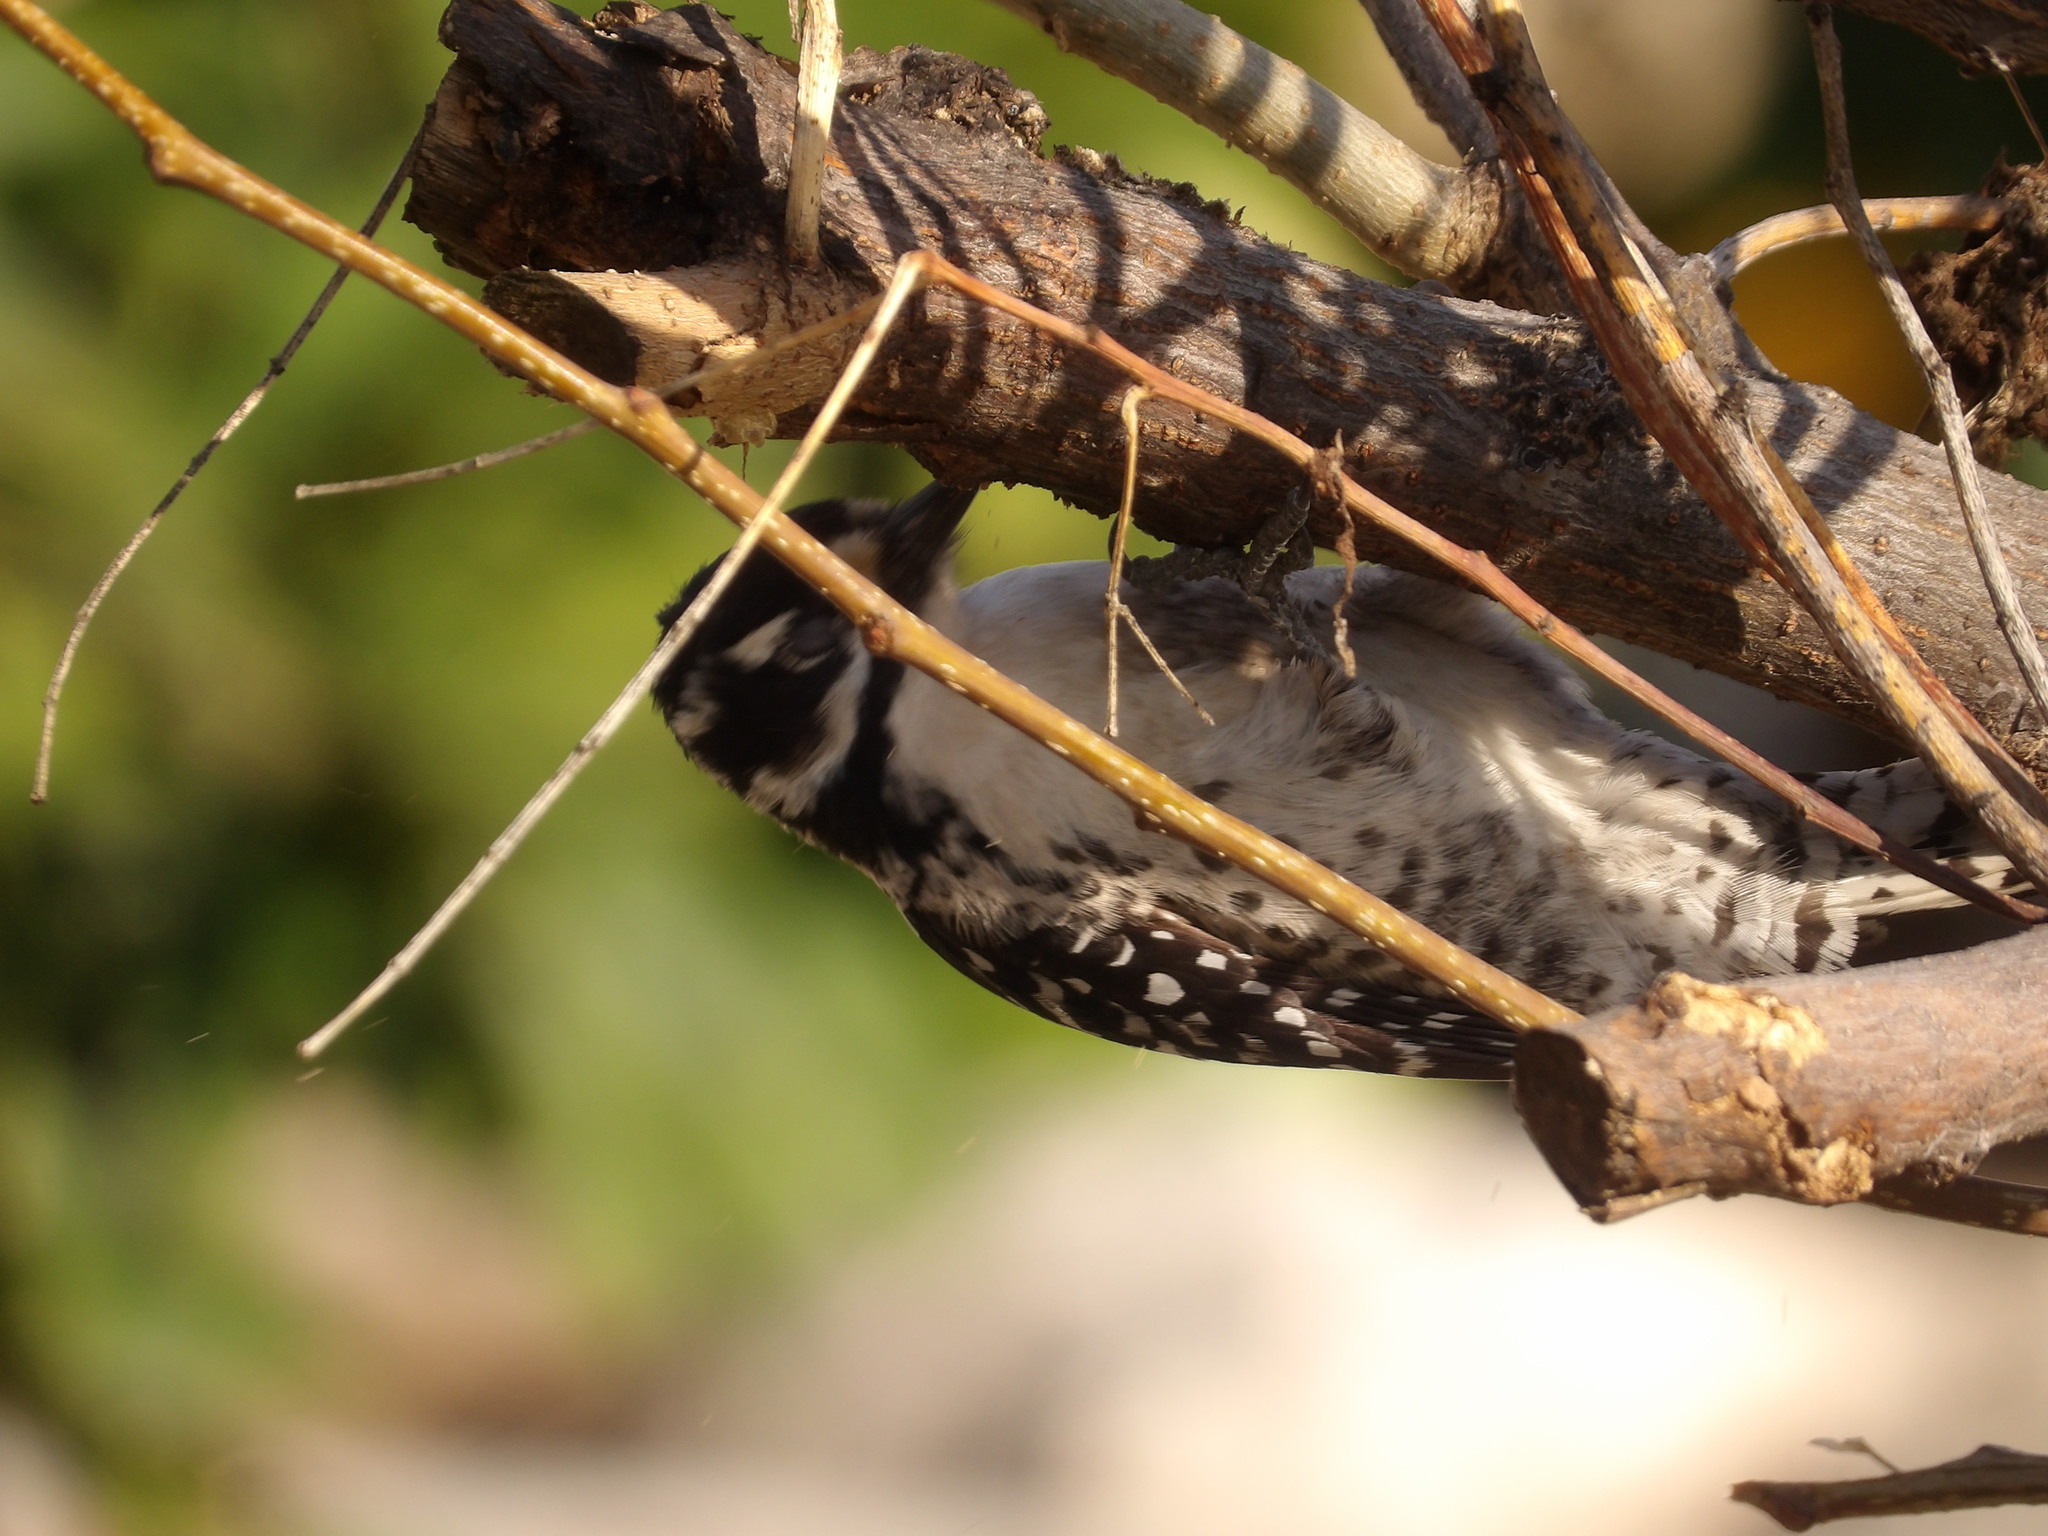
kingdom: Animalia
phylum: Chordata
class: Aves
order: Piciformes
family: Picidae
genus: Dryobates
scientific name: Dryobates nuttallii
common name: Nuttall's woodpecker
